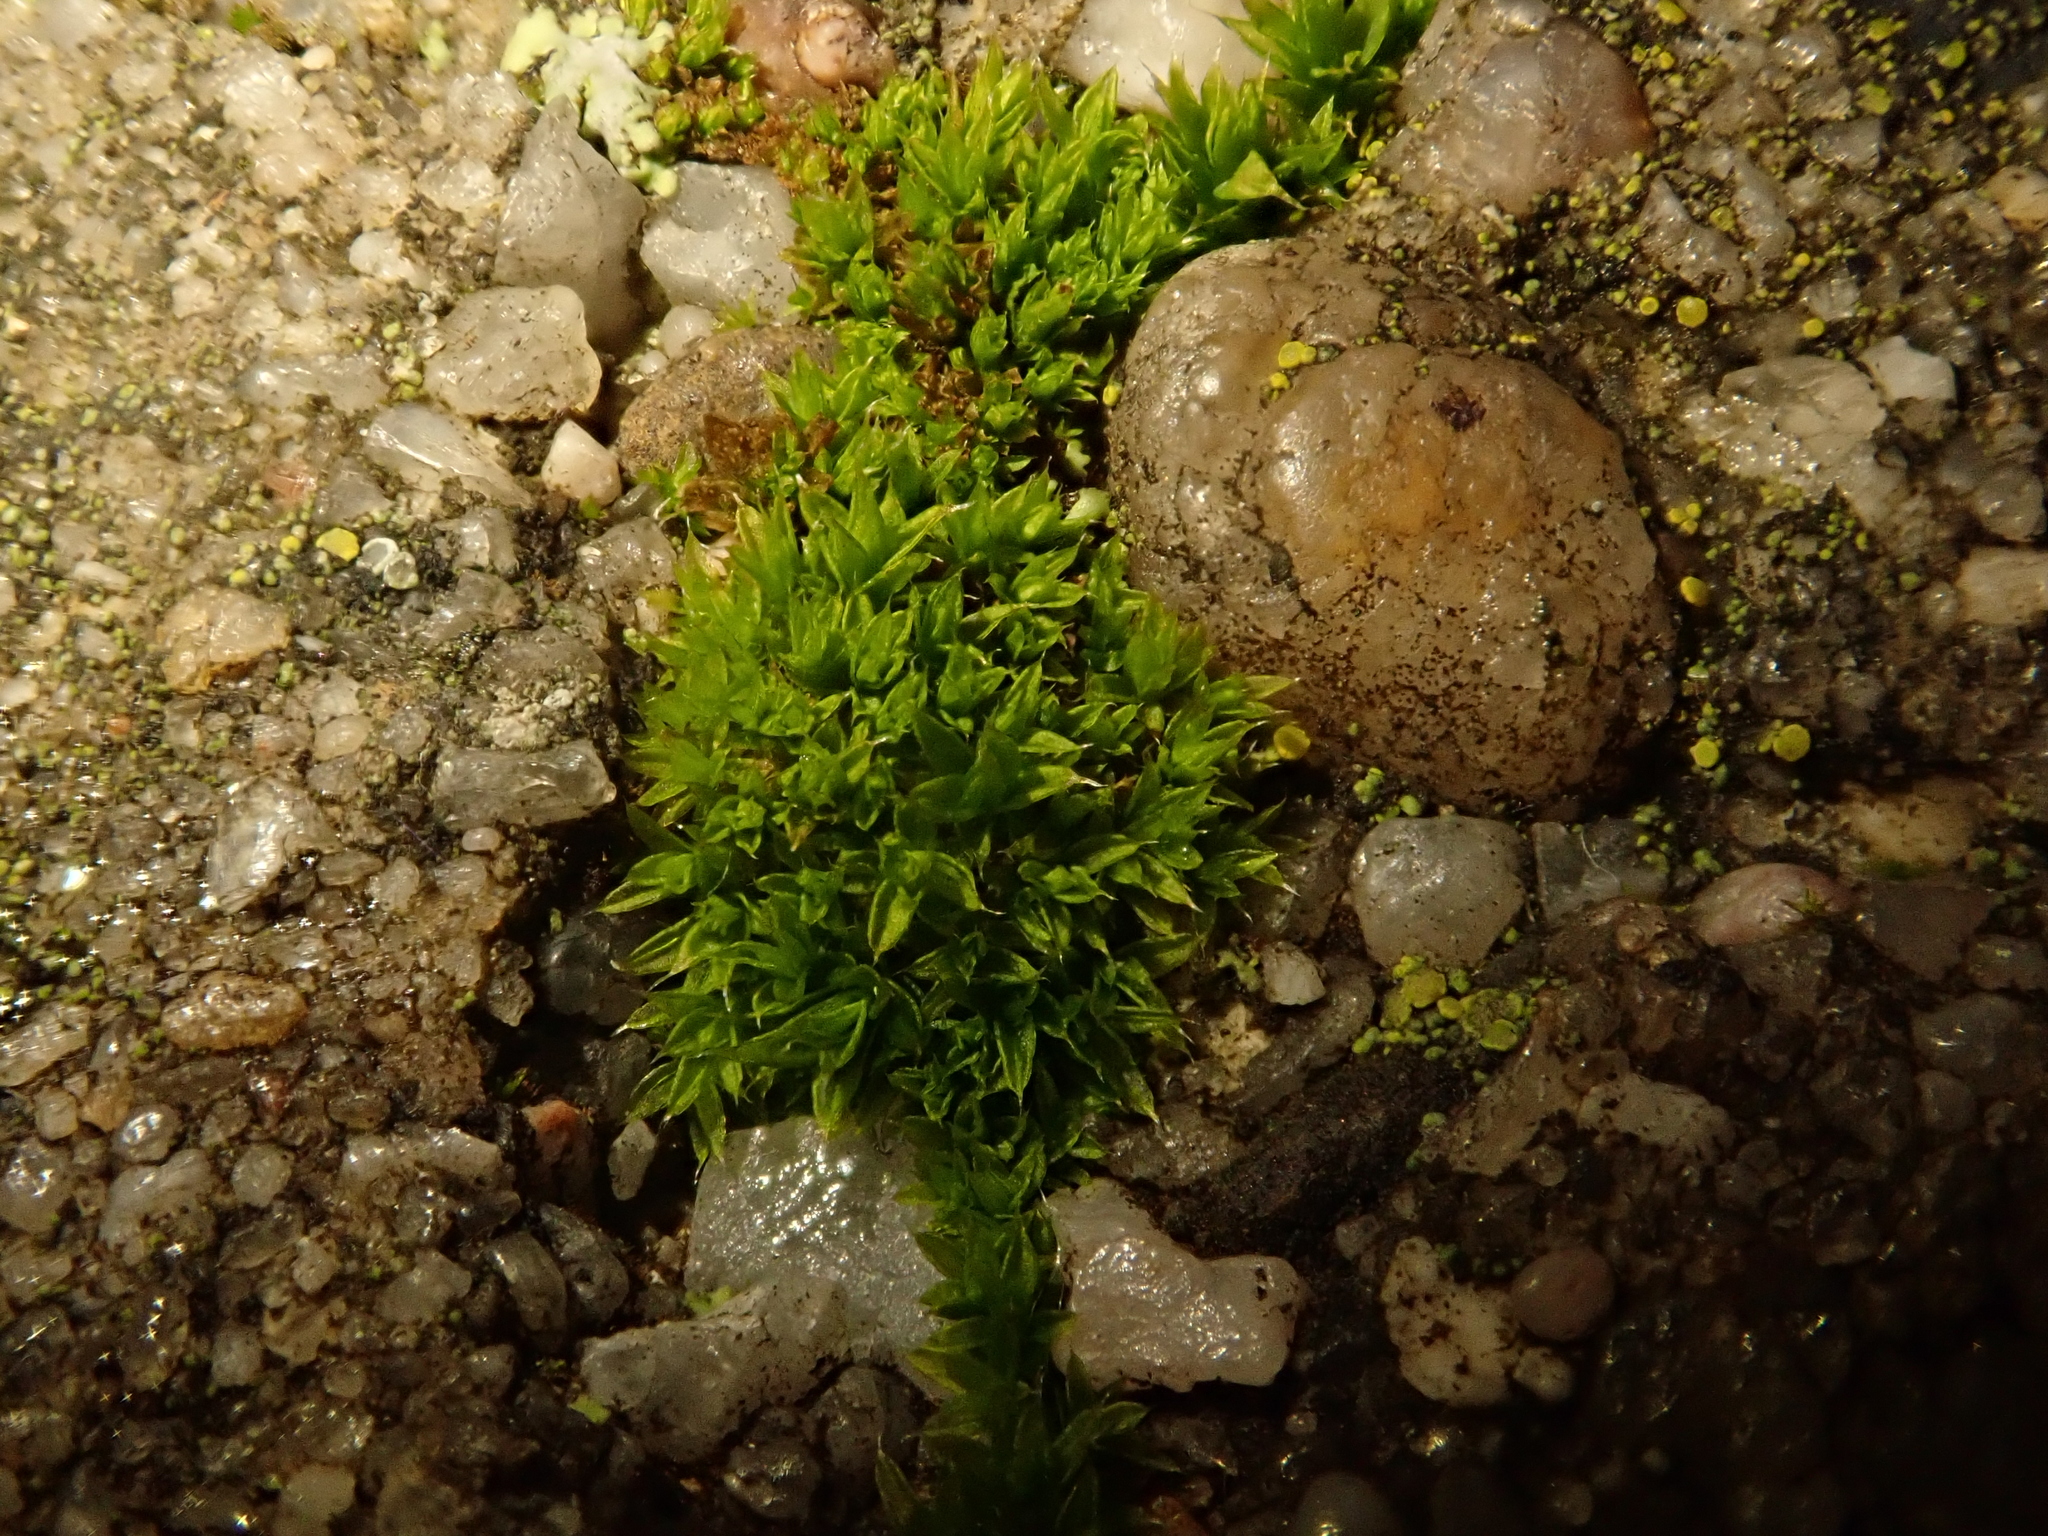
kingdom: Plantae
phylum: Bryophyta
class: Bryopsida
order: Pottiales
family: Pottiaceae
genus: Tortula
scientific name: Tortula muralis
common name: Wall screw-moss
